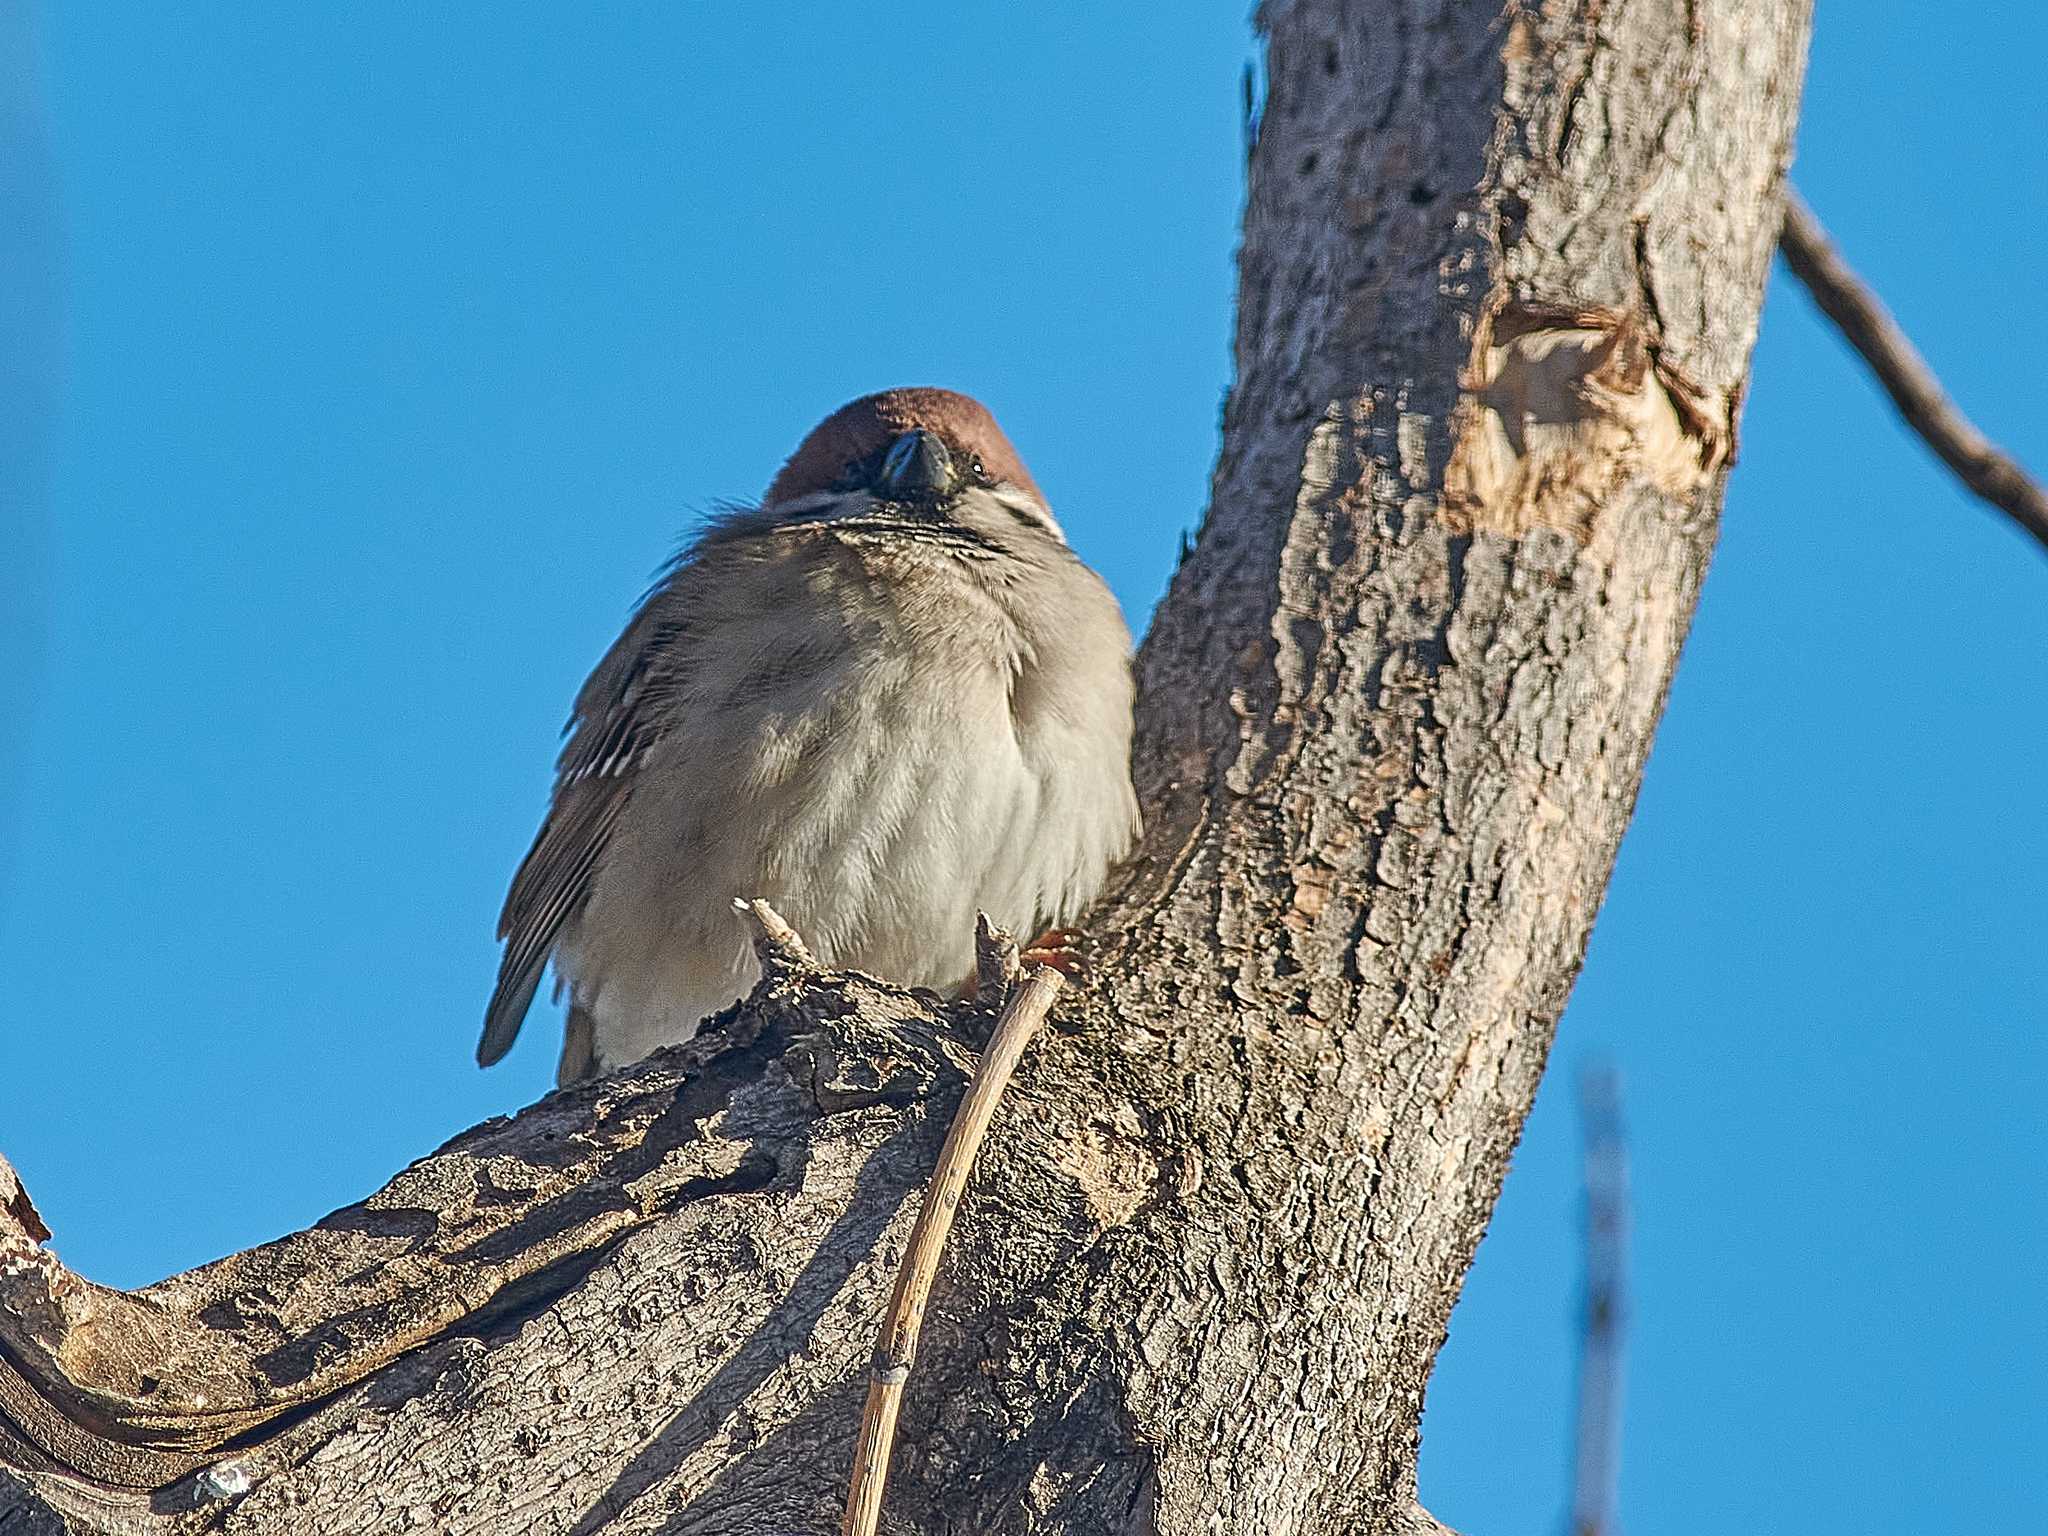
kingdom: Animalia
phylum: Chordata
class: Aves
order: Passeriformes
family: Passeridae
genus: Passer
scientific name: Passer montanus
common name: Eurasian tree sparrow
